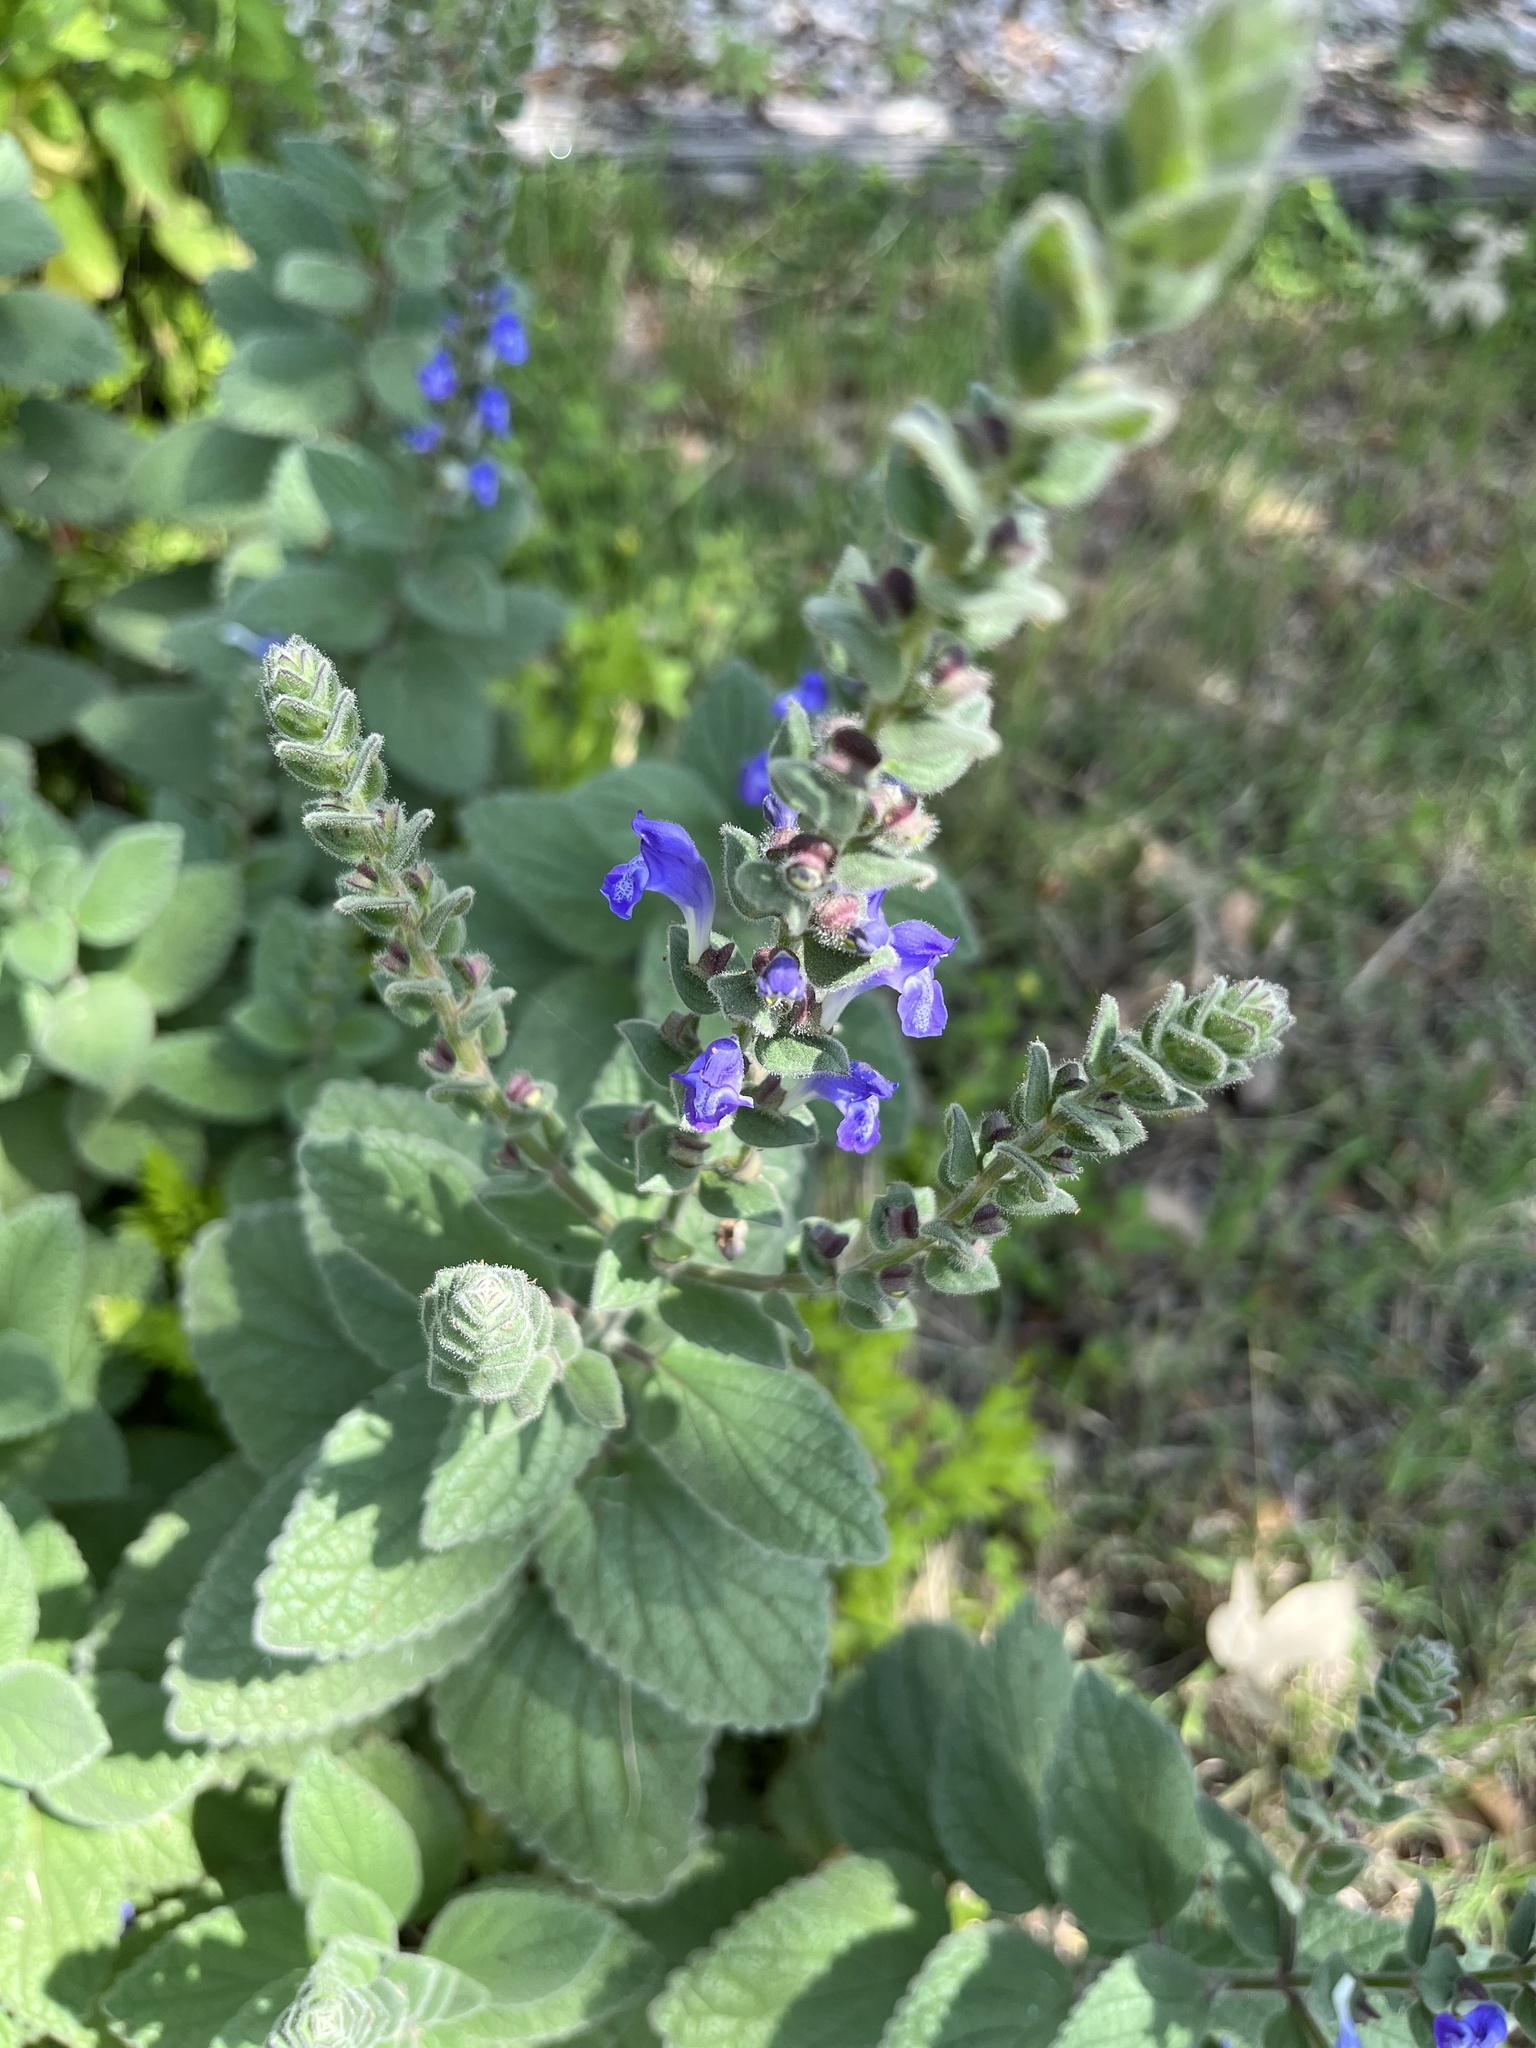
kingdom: Plantae
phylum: Tracheophyta
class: Magnoliopsida
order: Lamiales
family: Lamiaceae
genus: Scutellaria
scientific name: Scutellaria ovata
